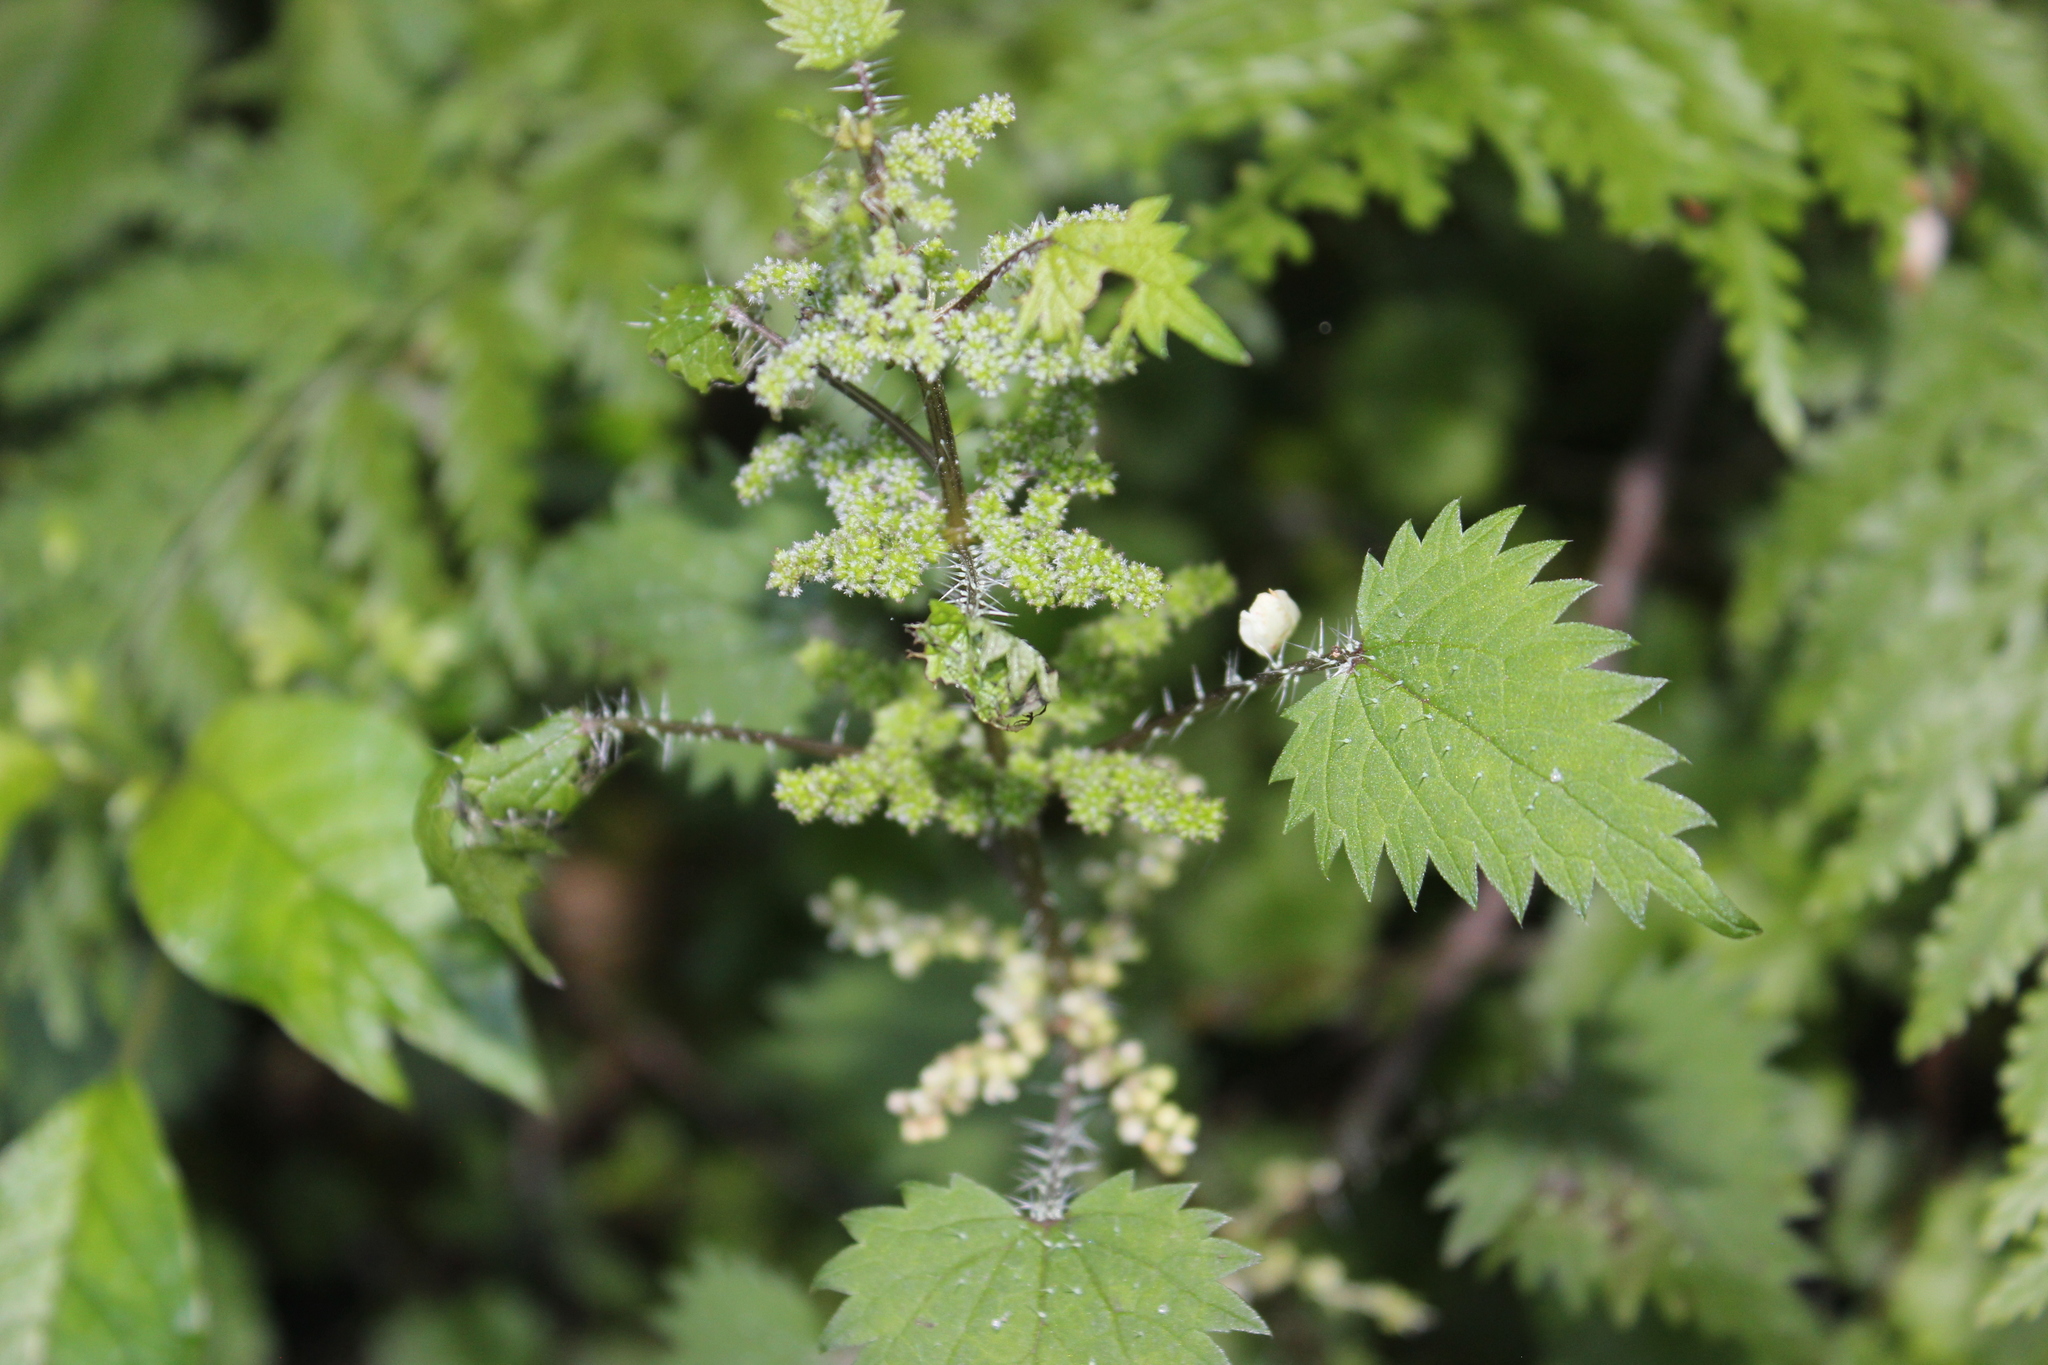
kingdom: Plantae
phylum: Tracheophyta
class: Magnoliopsida
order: Rosales
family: Urticaceae
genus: Urtica
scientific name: Urtica sykesii
